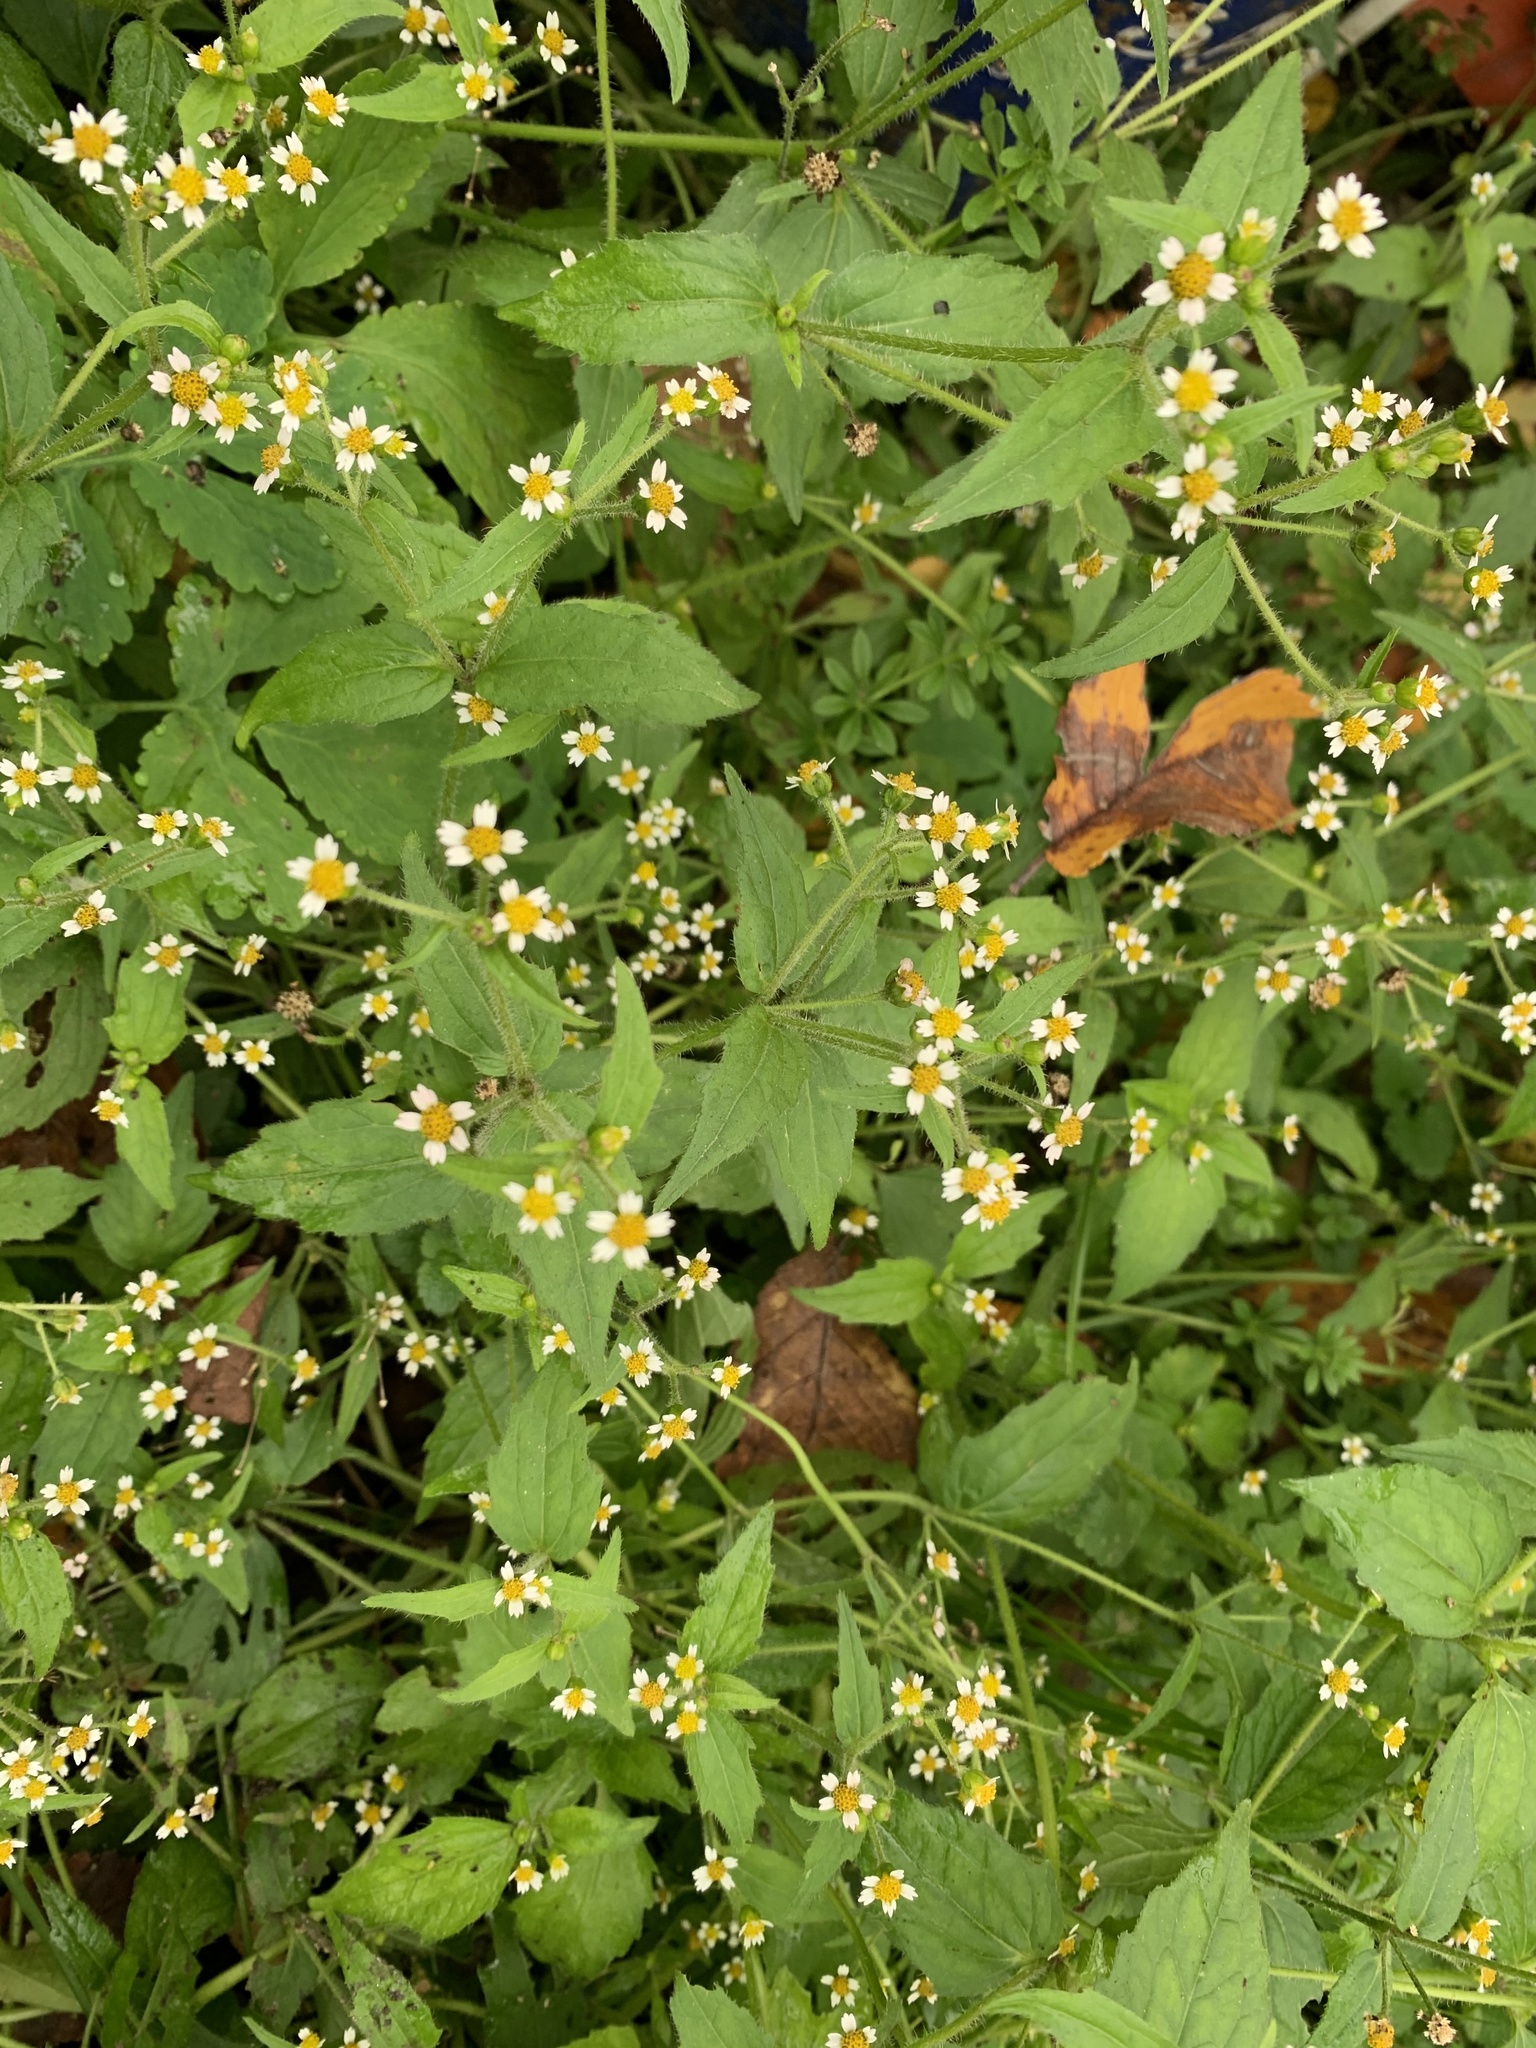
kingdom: Plantae
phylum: Tracheophyta
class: Magnoliopsida
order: Asterales
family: Asteraceae
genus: Galinsoga
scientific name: Galinsoga quadriradiata
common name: Shaggy soldier
